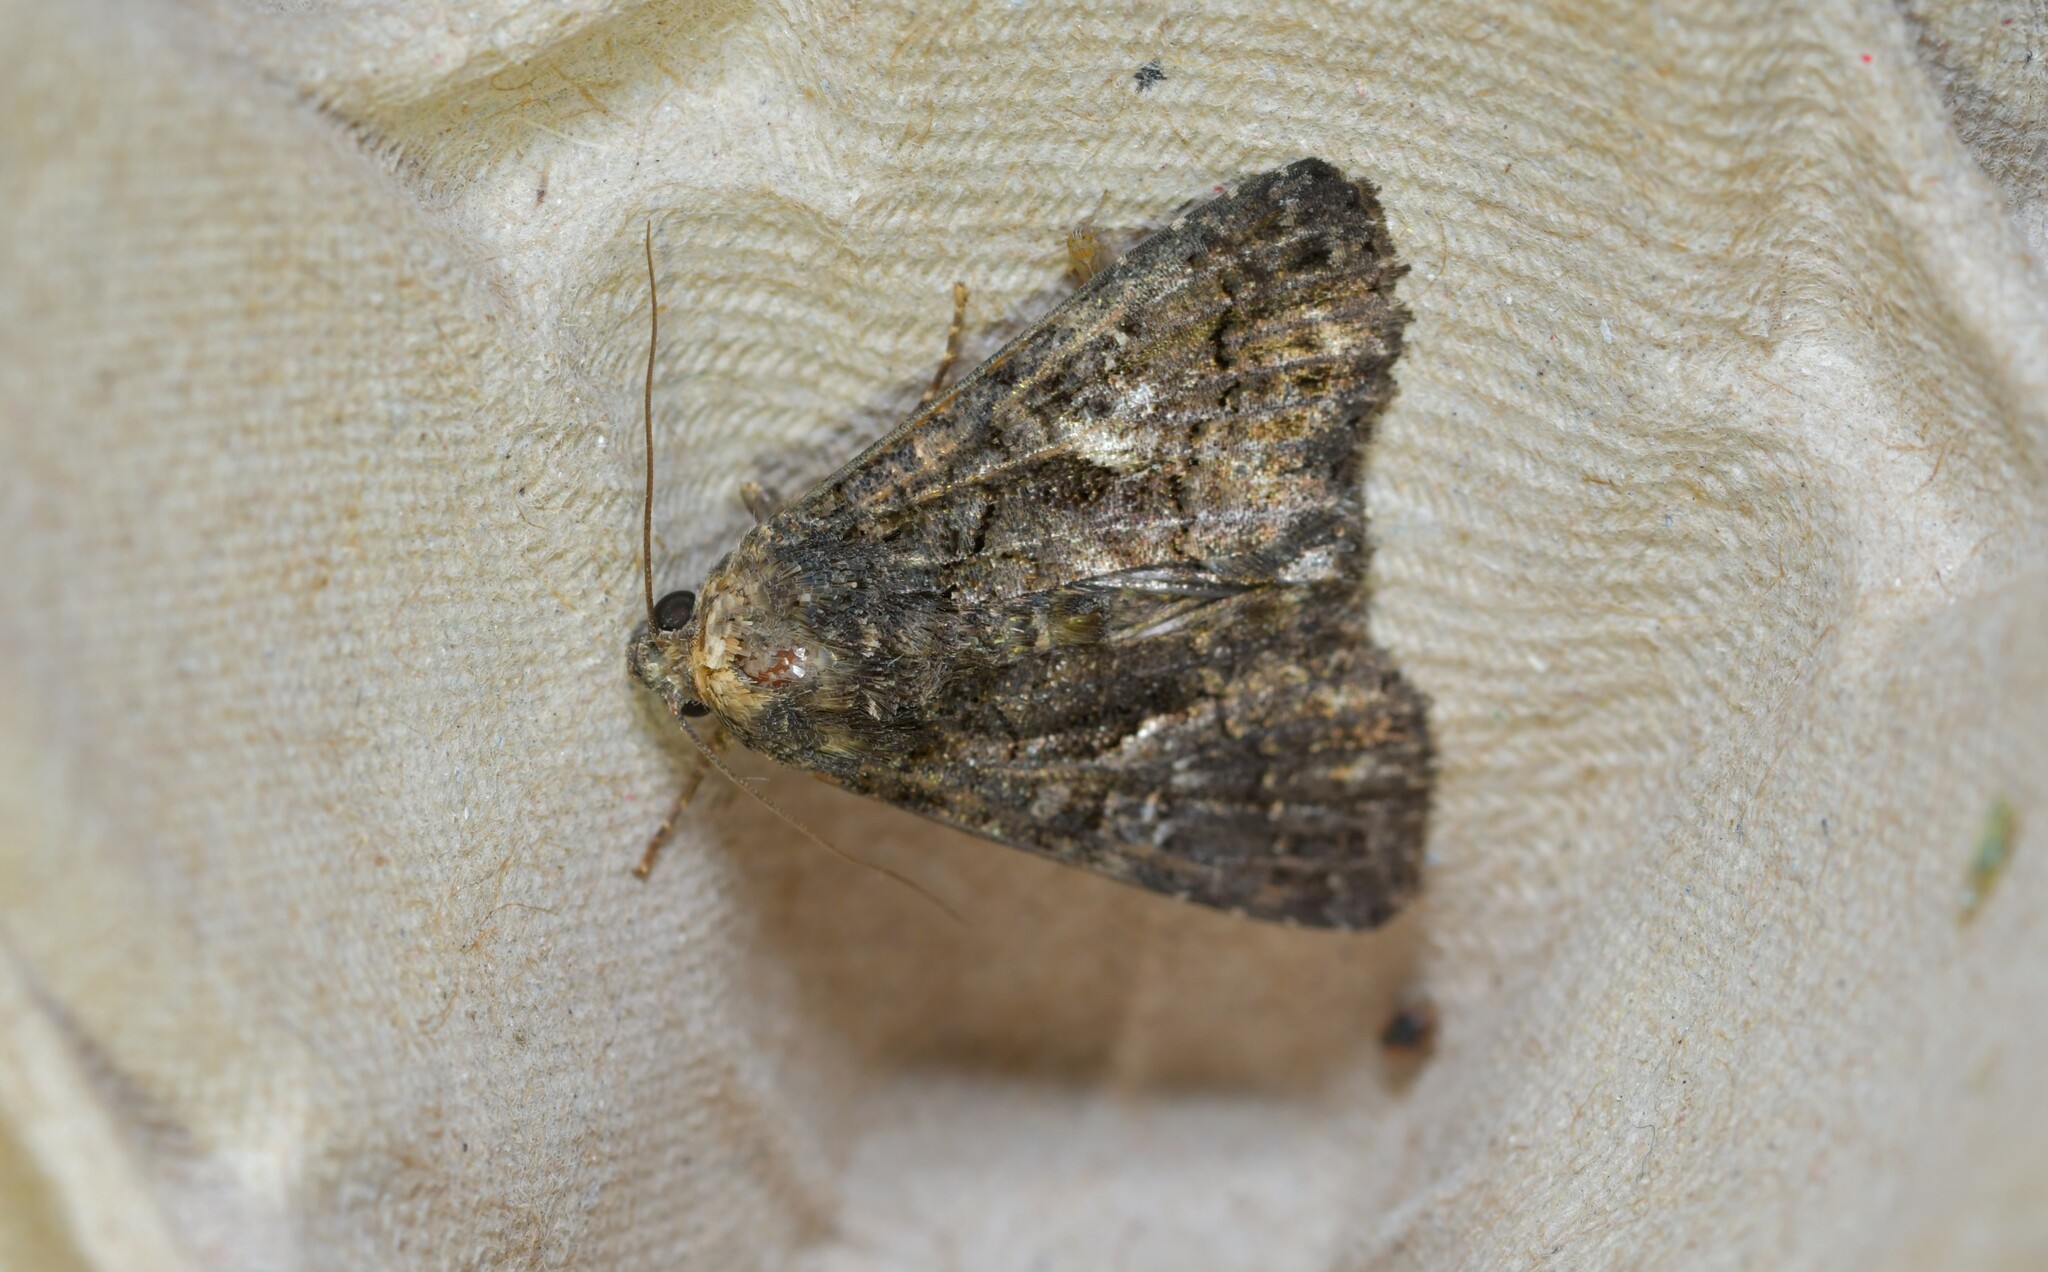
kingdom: Animalia
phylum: Arthropoda
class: Insecta
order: Lepidoptera
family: Noctuidae
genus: Aedia
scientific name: Aedia leucomelas
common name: Sorcerer
